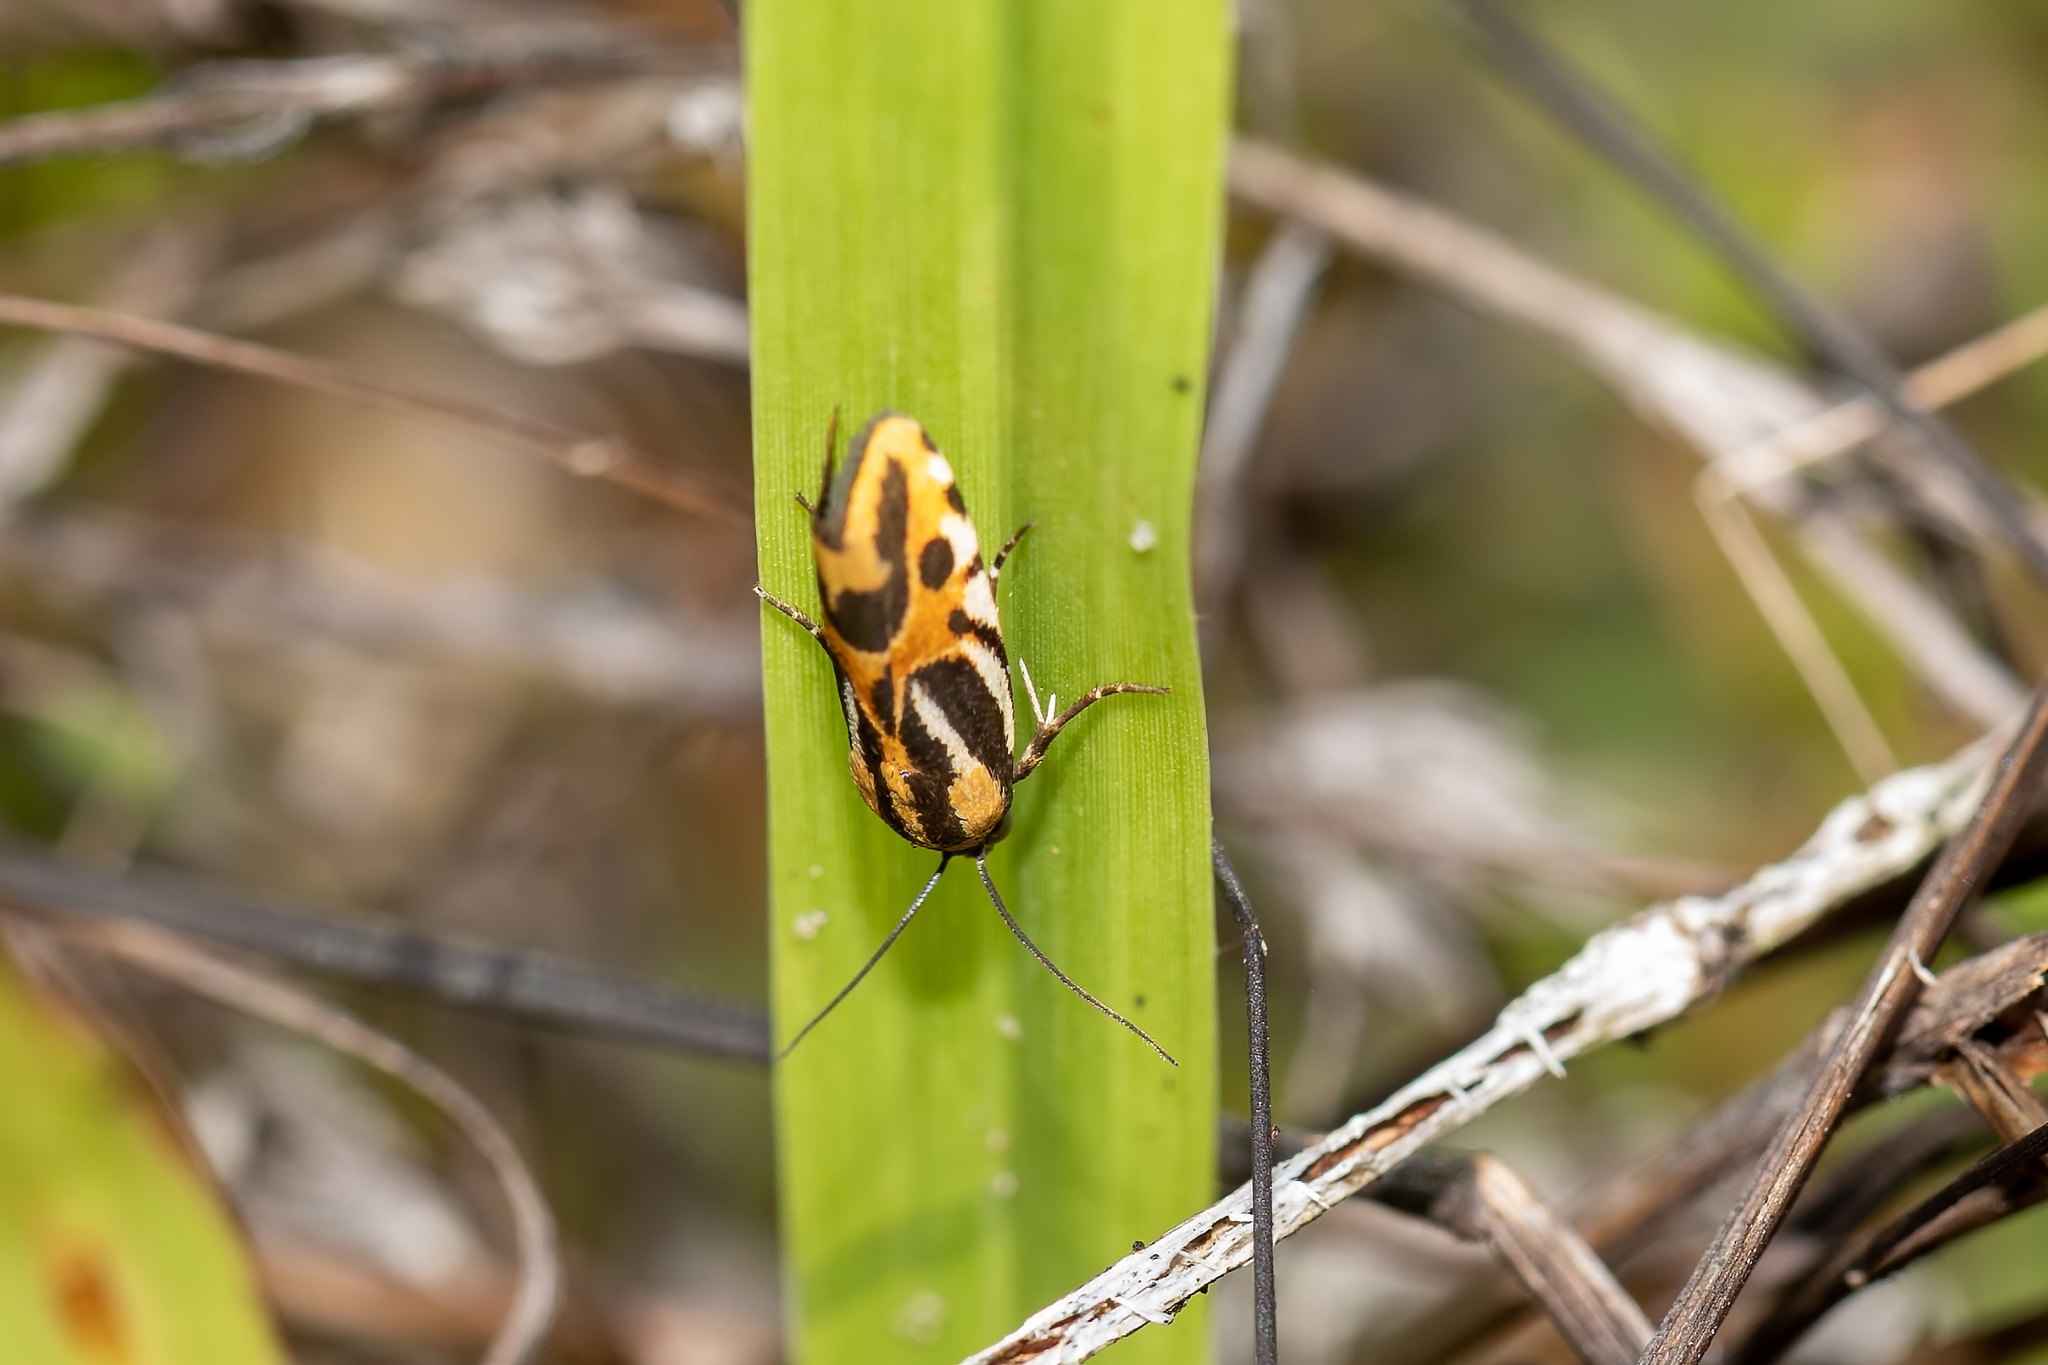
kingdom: Animalia
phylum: Arthropoda
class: Insecta
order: Lepidoptera
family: Noctuidae
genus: Acontia
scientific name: Acontia onagrus
